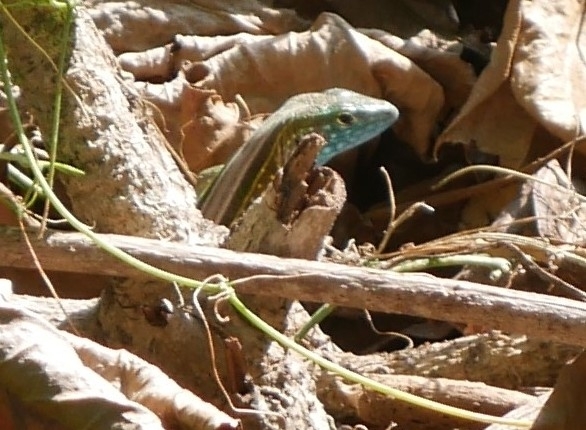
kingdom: Animalia
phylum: Chordata
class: Squamata
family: Teiidae
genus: Cnemidophorus
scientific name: Cnemidophorus gaigei
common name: Gaige’s rainbow lizard
